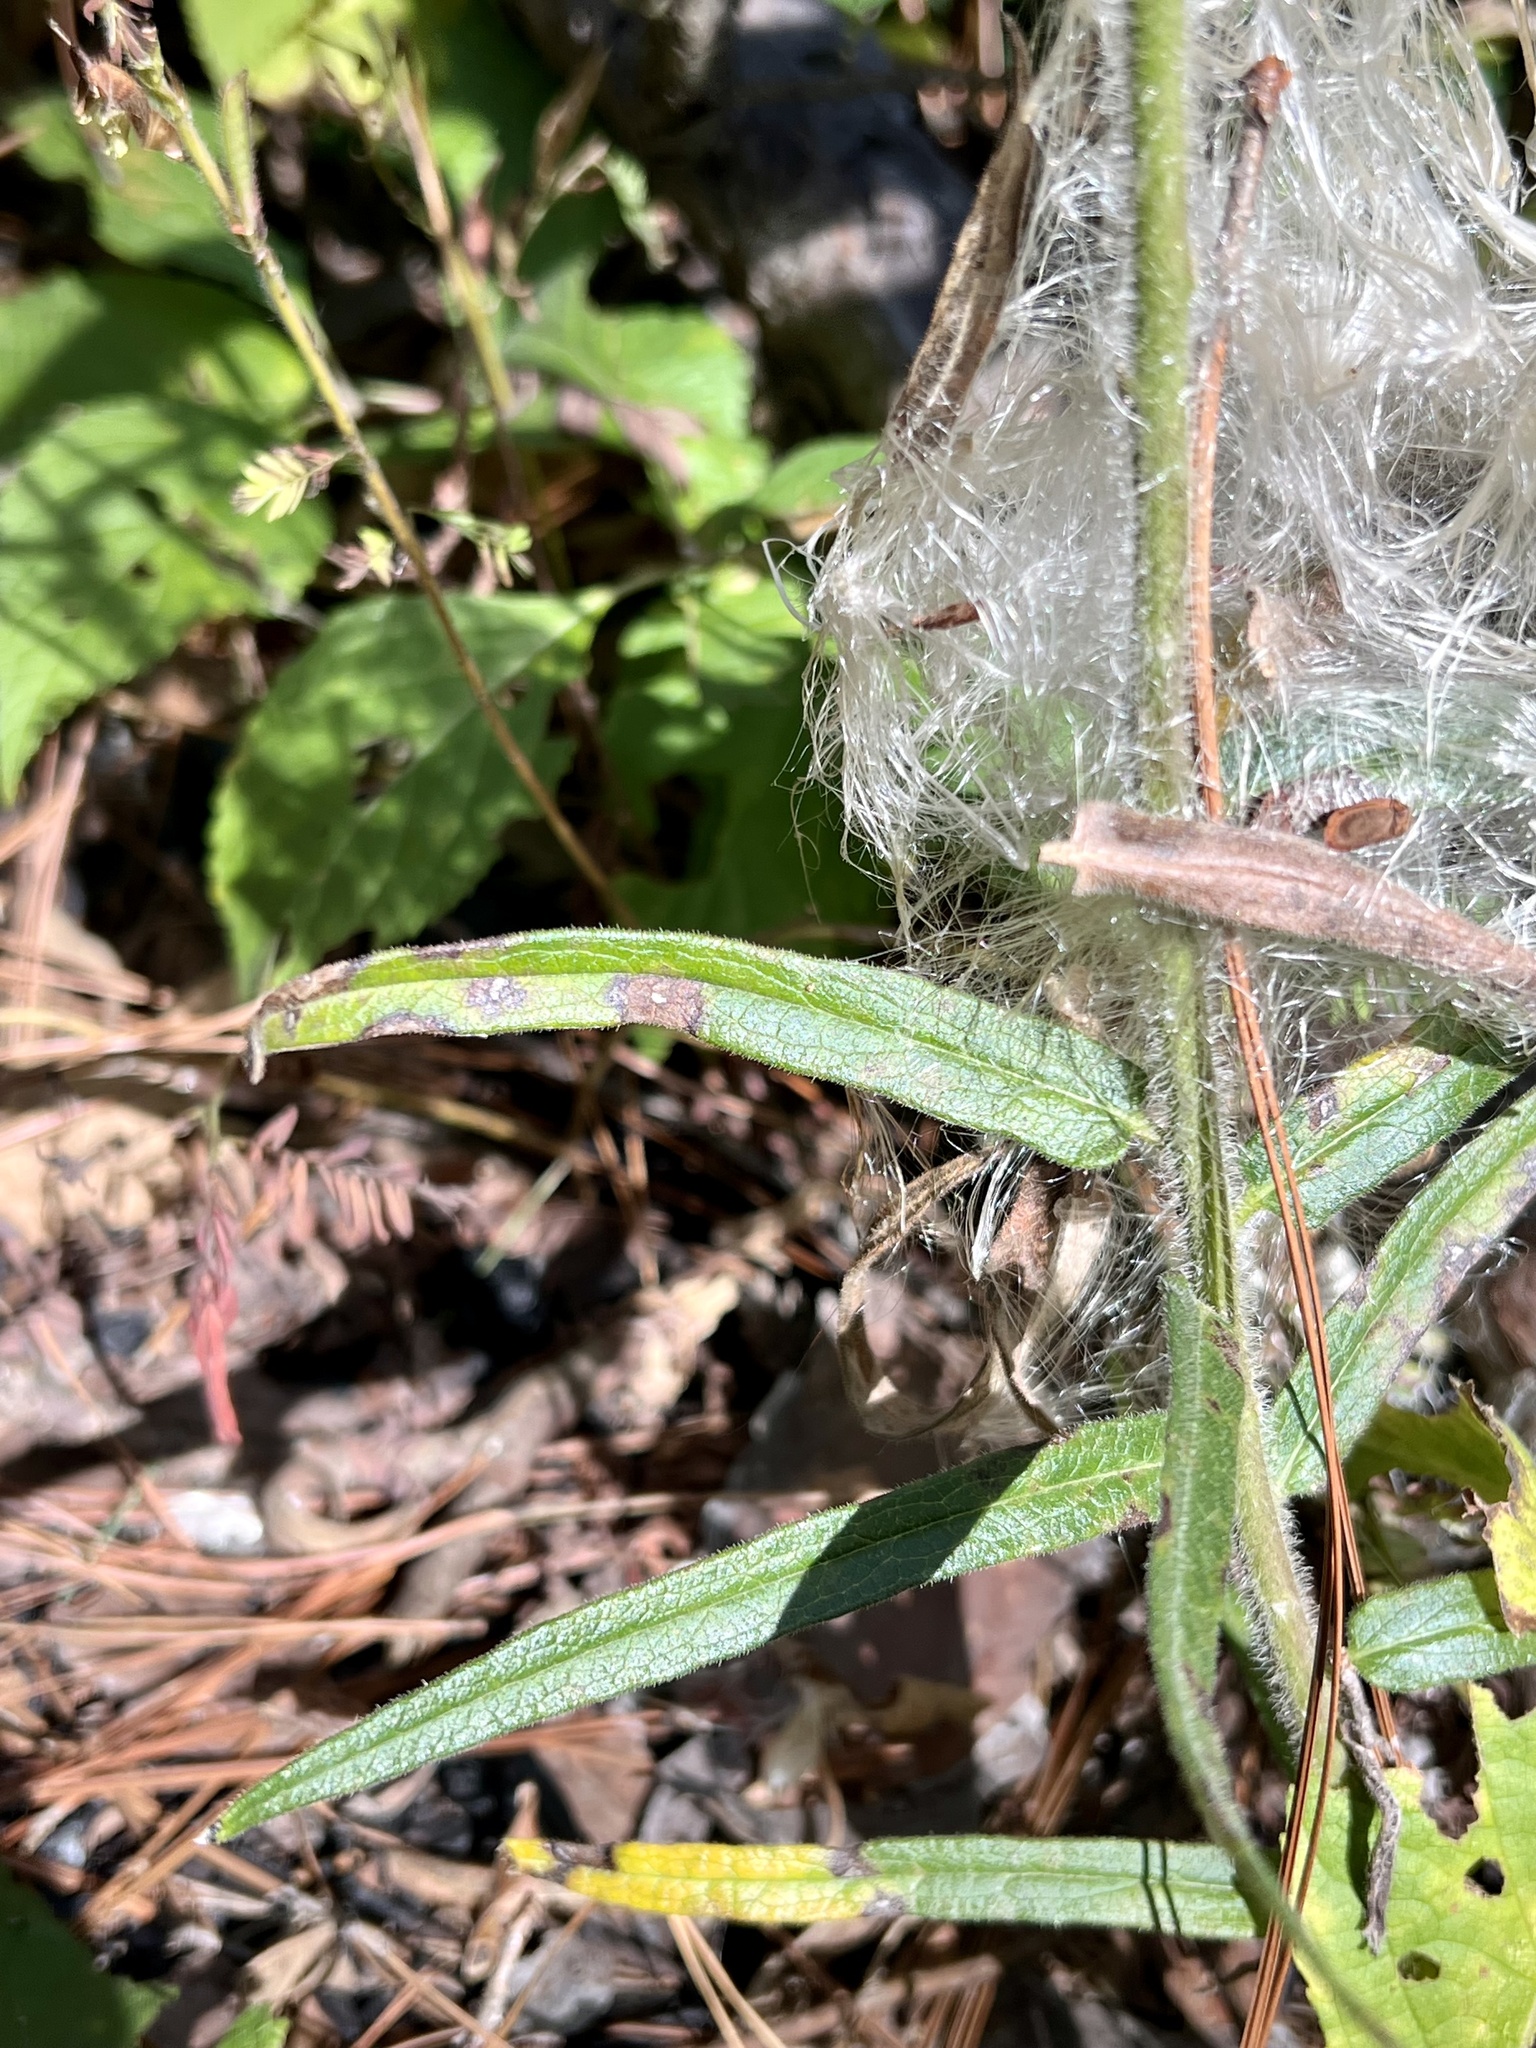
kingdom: Plantae
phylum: Tracheophyta
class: Magnoliopsida
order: Gentianales
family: Apocynaceae
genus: Asclepias
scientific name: Asclepias tuberosa
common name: Butterfly milkweed
